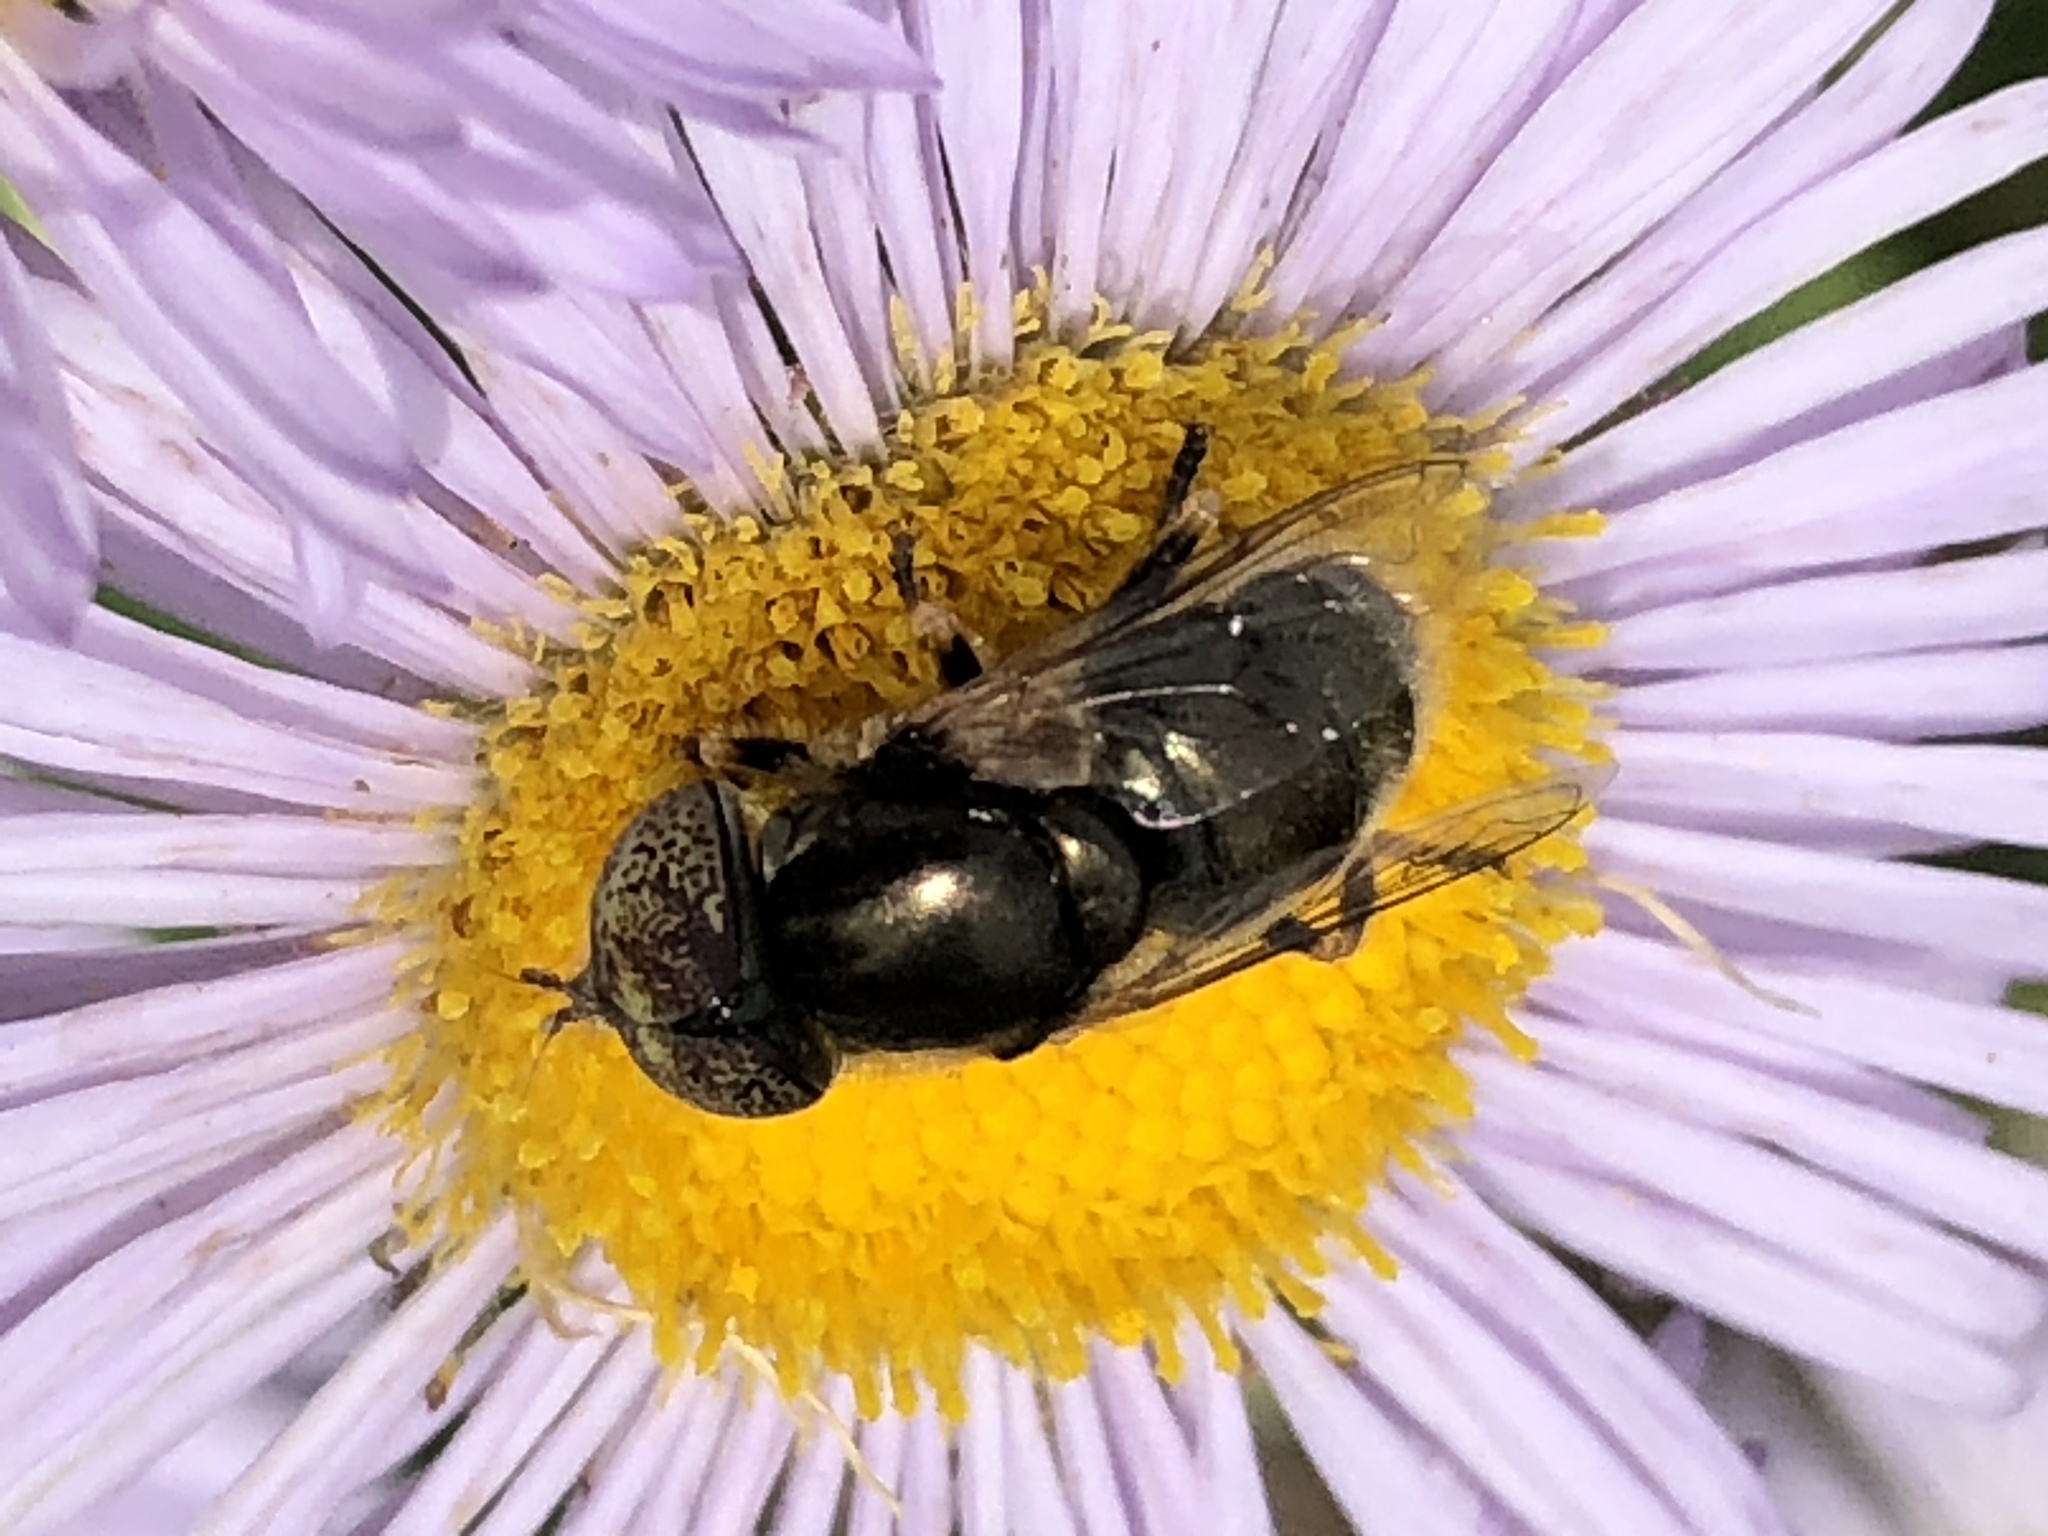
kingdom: Animalia
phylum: Arthropoda
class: Insecta
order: Diptera
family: Syrphidae
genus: Eristalinus
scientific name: Eristalinus aeneus
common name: Syrphid fly
